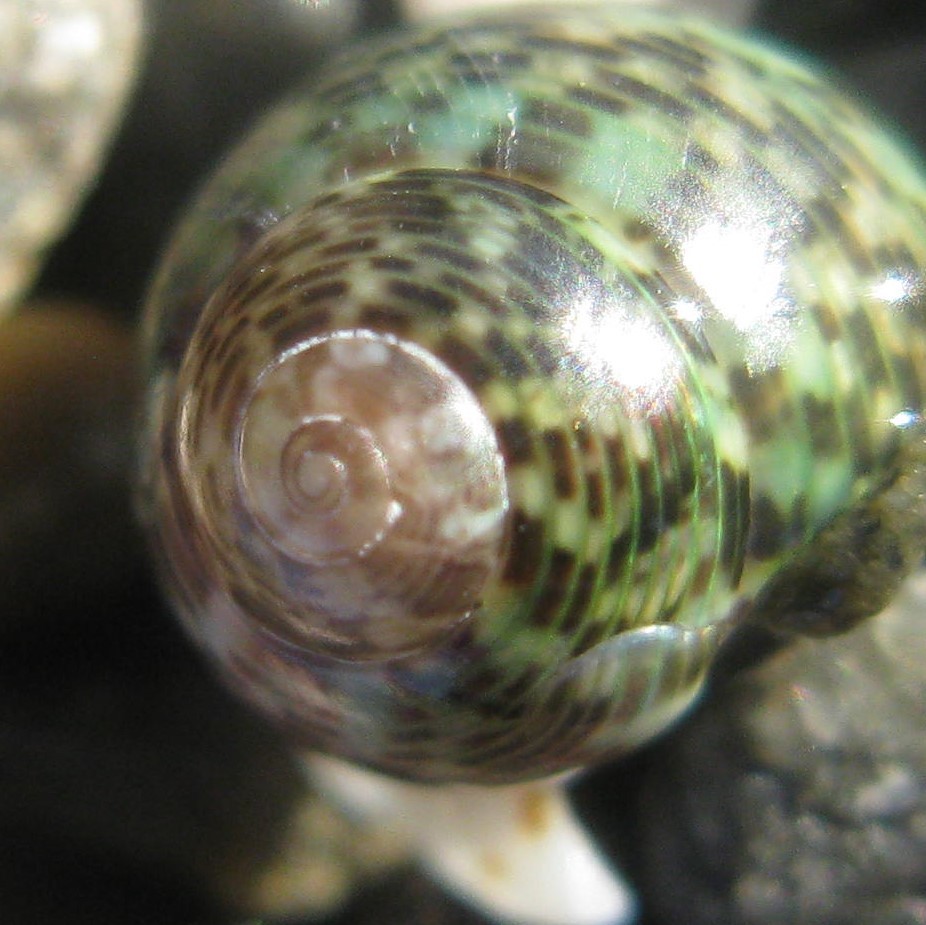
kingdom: Animalia
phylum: Mollusca
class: Gastropoda
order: Trochida
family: Trochidae
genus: Micrelenchus
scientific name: Micrelenchus tessellatus
